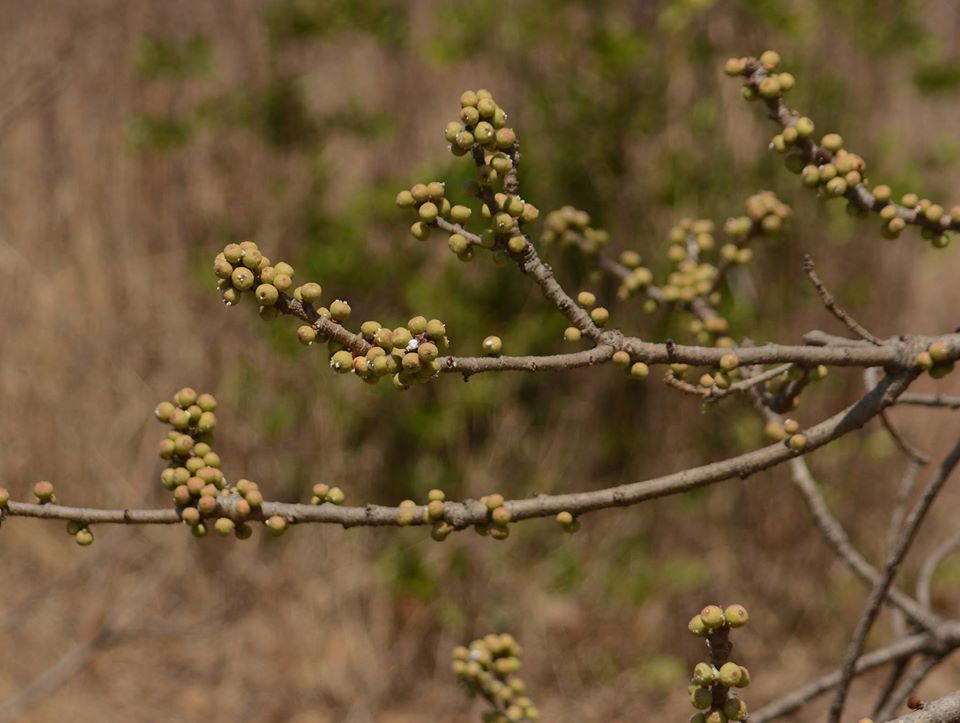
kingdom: Plantae
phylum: Tracheophyta
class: Magnoliopsida
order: Rosales
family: Moraceae
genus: Ficus
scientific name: Ficus arnottiana
